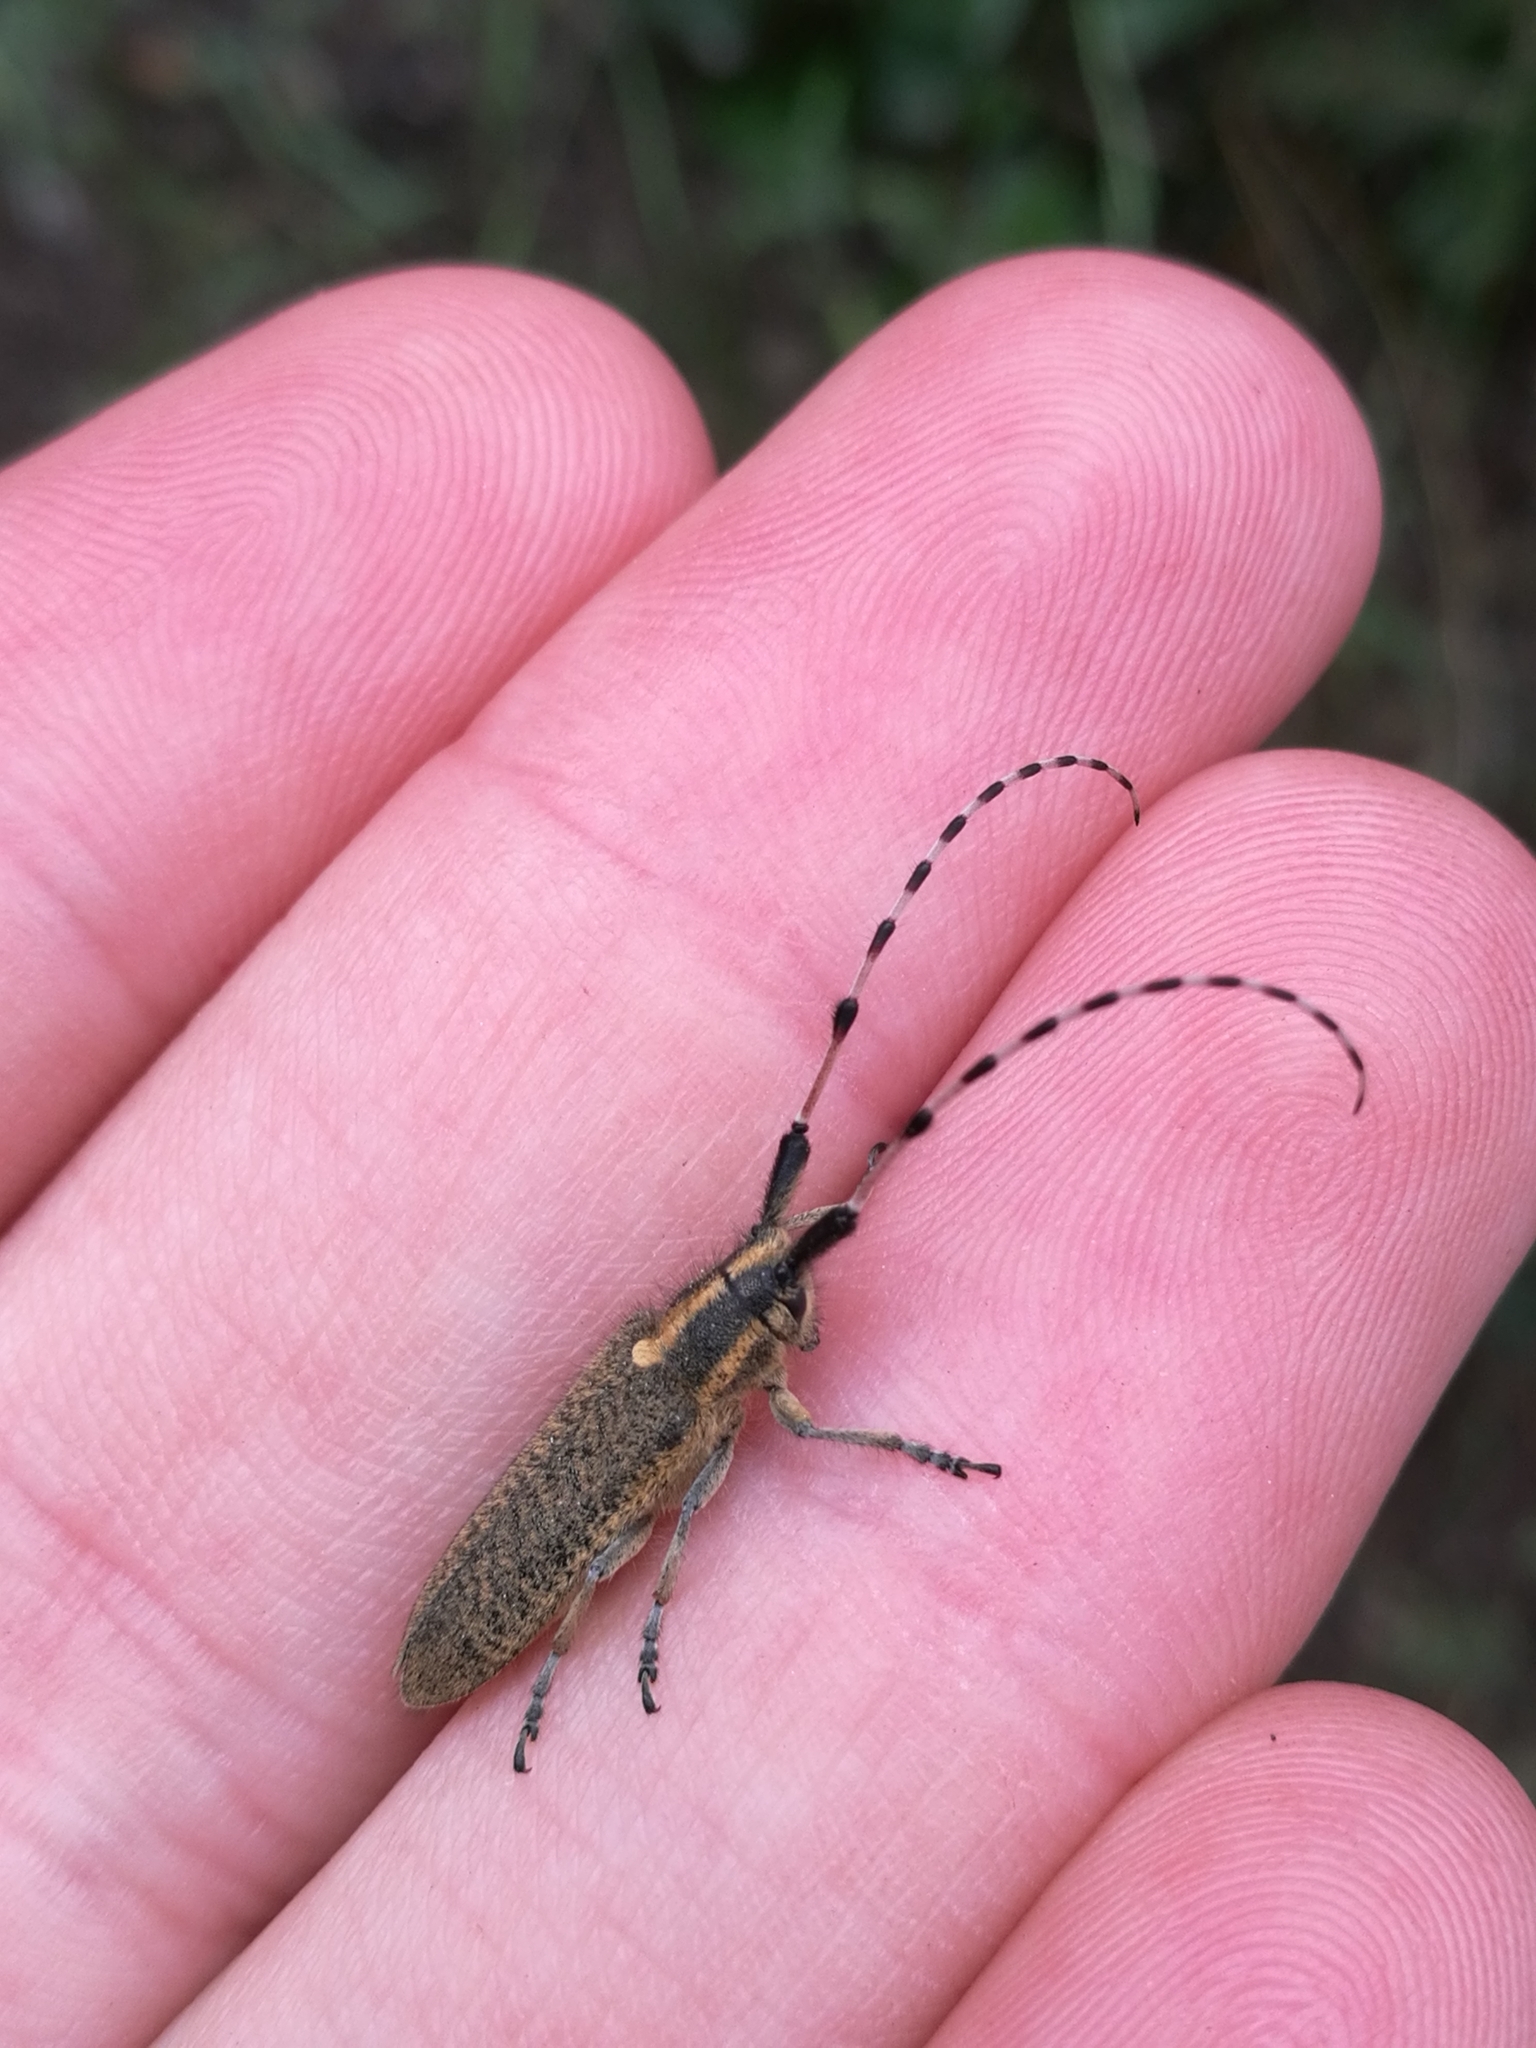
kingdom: Animalia
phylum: Arthropoda
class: Insecta
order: Coleoptera
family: Cerambycidae
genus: Agapanthia
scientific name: Agapanthia dahlii
